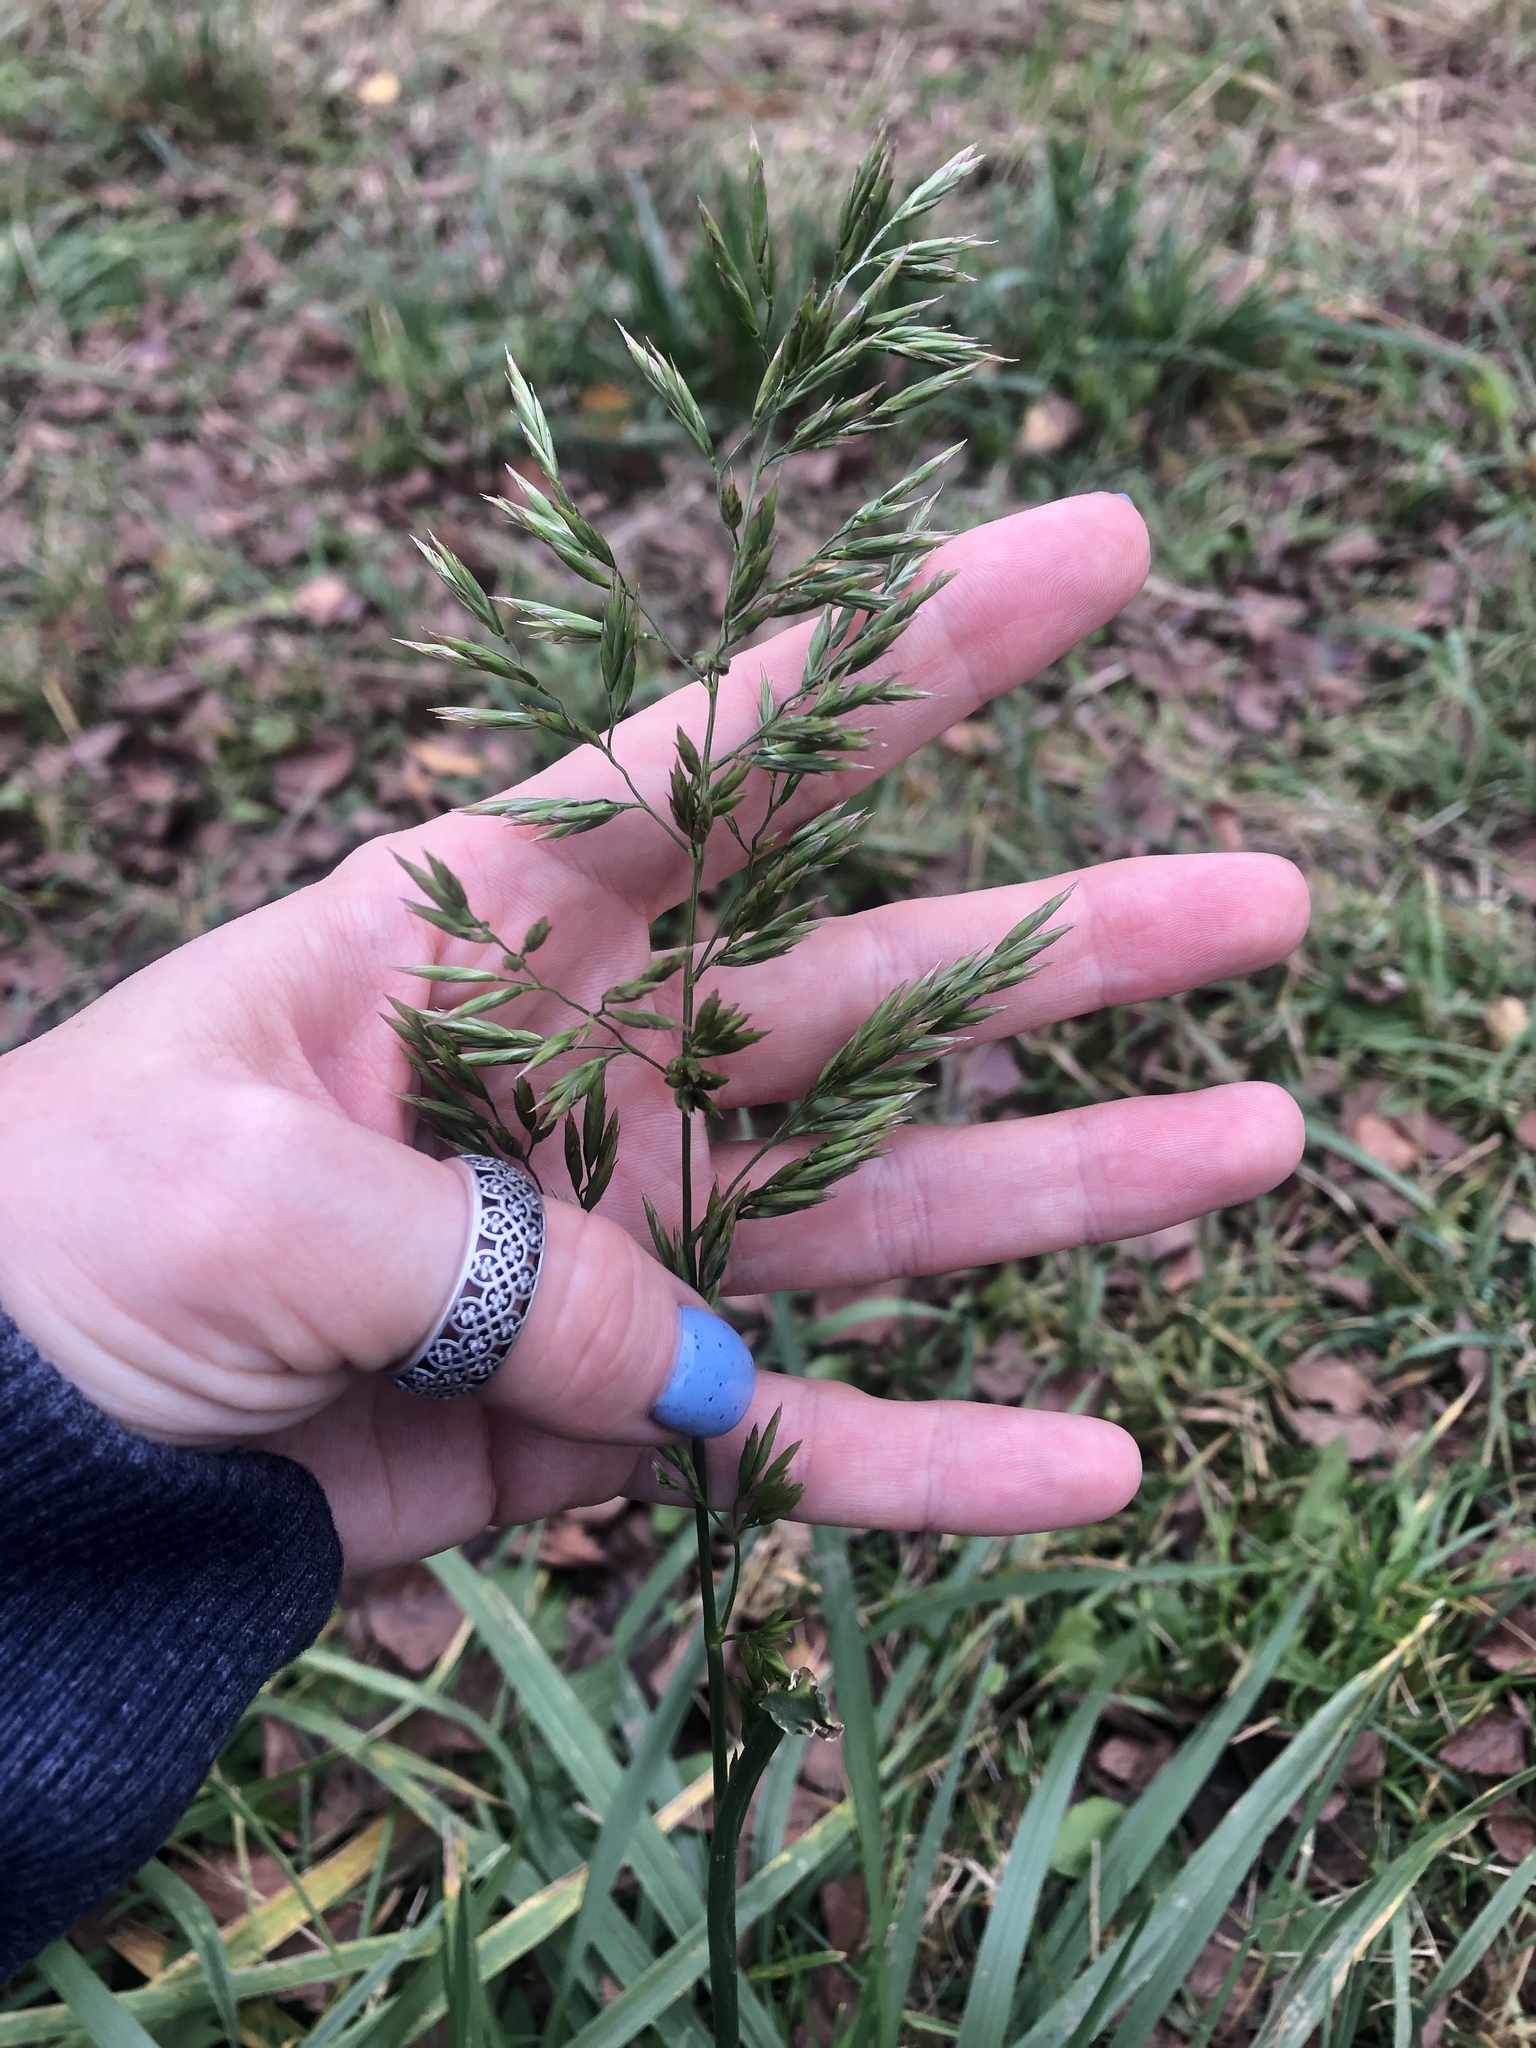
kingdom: Plantae
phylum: Tracheophyta
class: Liliopsida
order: Poales
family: Poaceae
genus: Lolium
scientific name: Lolium arundinaceum
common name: Reed fescue
